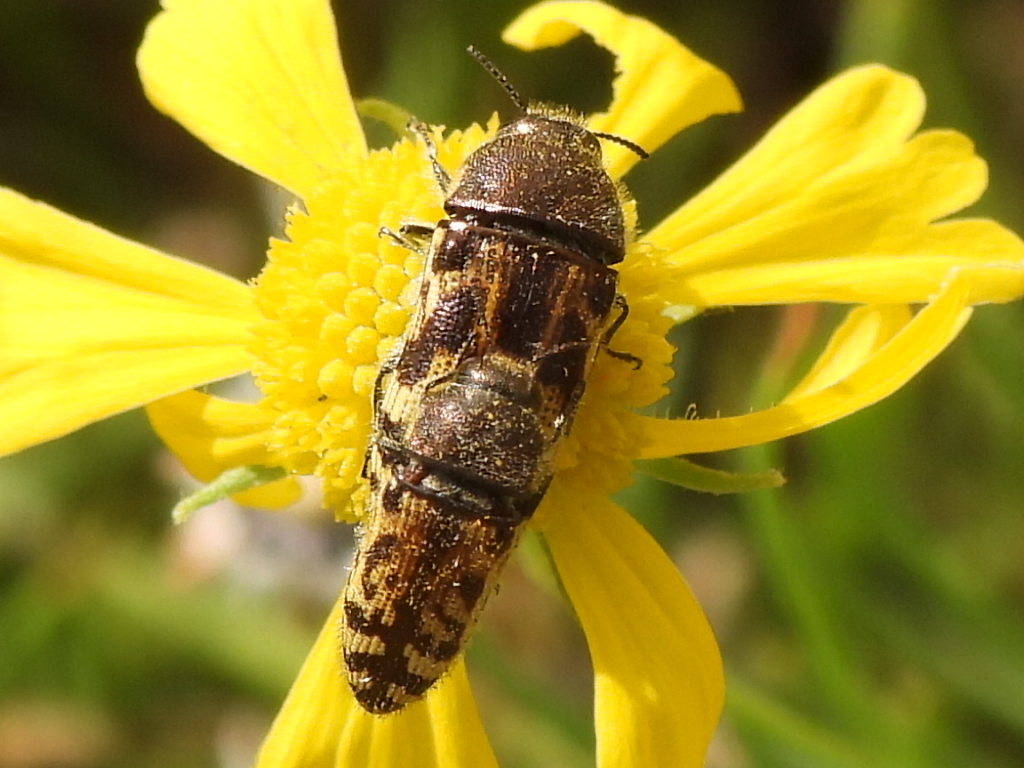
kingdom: Animalia
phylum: Arthropoda
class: Insecta
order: Coleoptera
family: Buprestidae
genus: Acmaeodera
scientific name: Acmaeodera mixta
